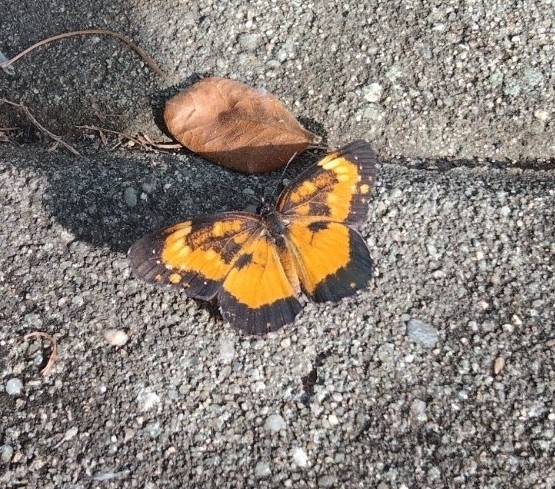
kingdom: Animalia
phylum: Arthropoda
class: Insecta
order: Lepidoptera
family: Nymphalidae
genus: Chlosyne
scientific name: Chlosyne lacinia
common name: Bordered patch
